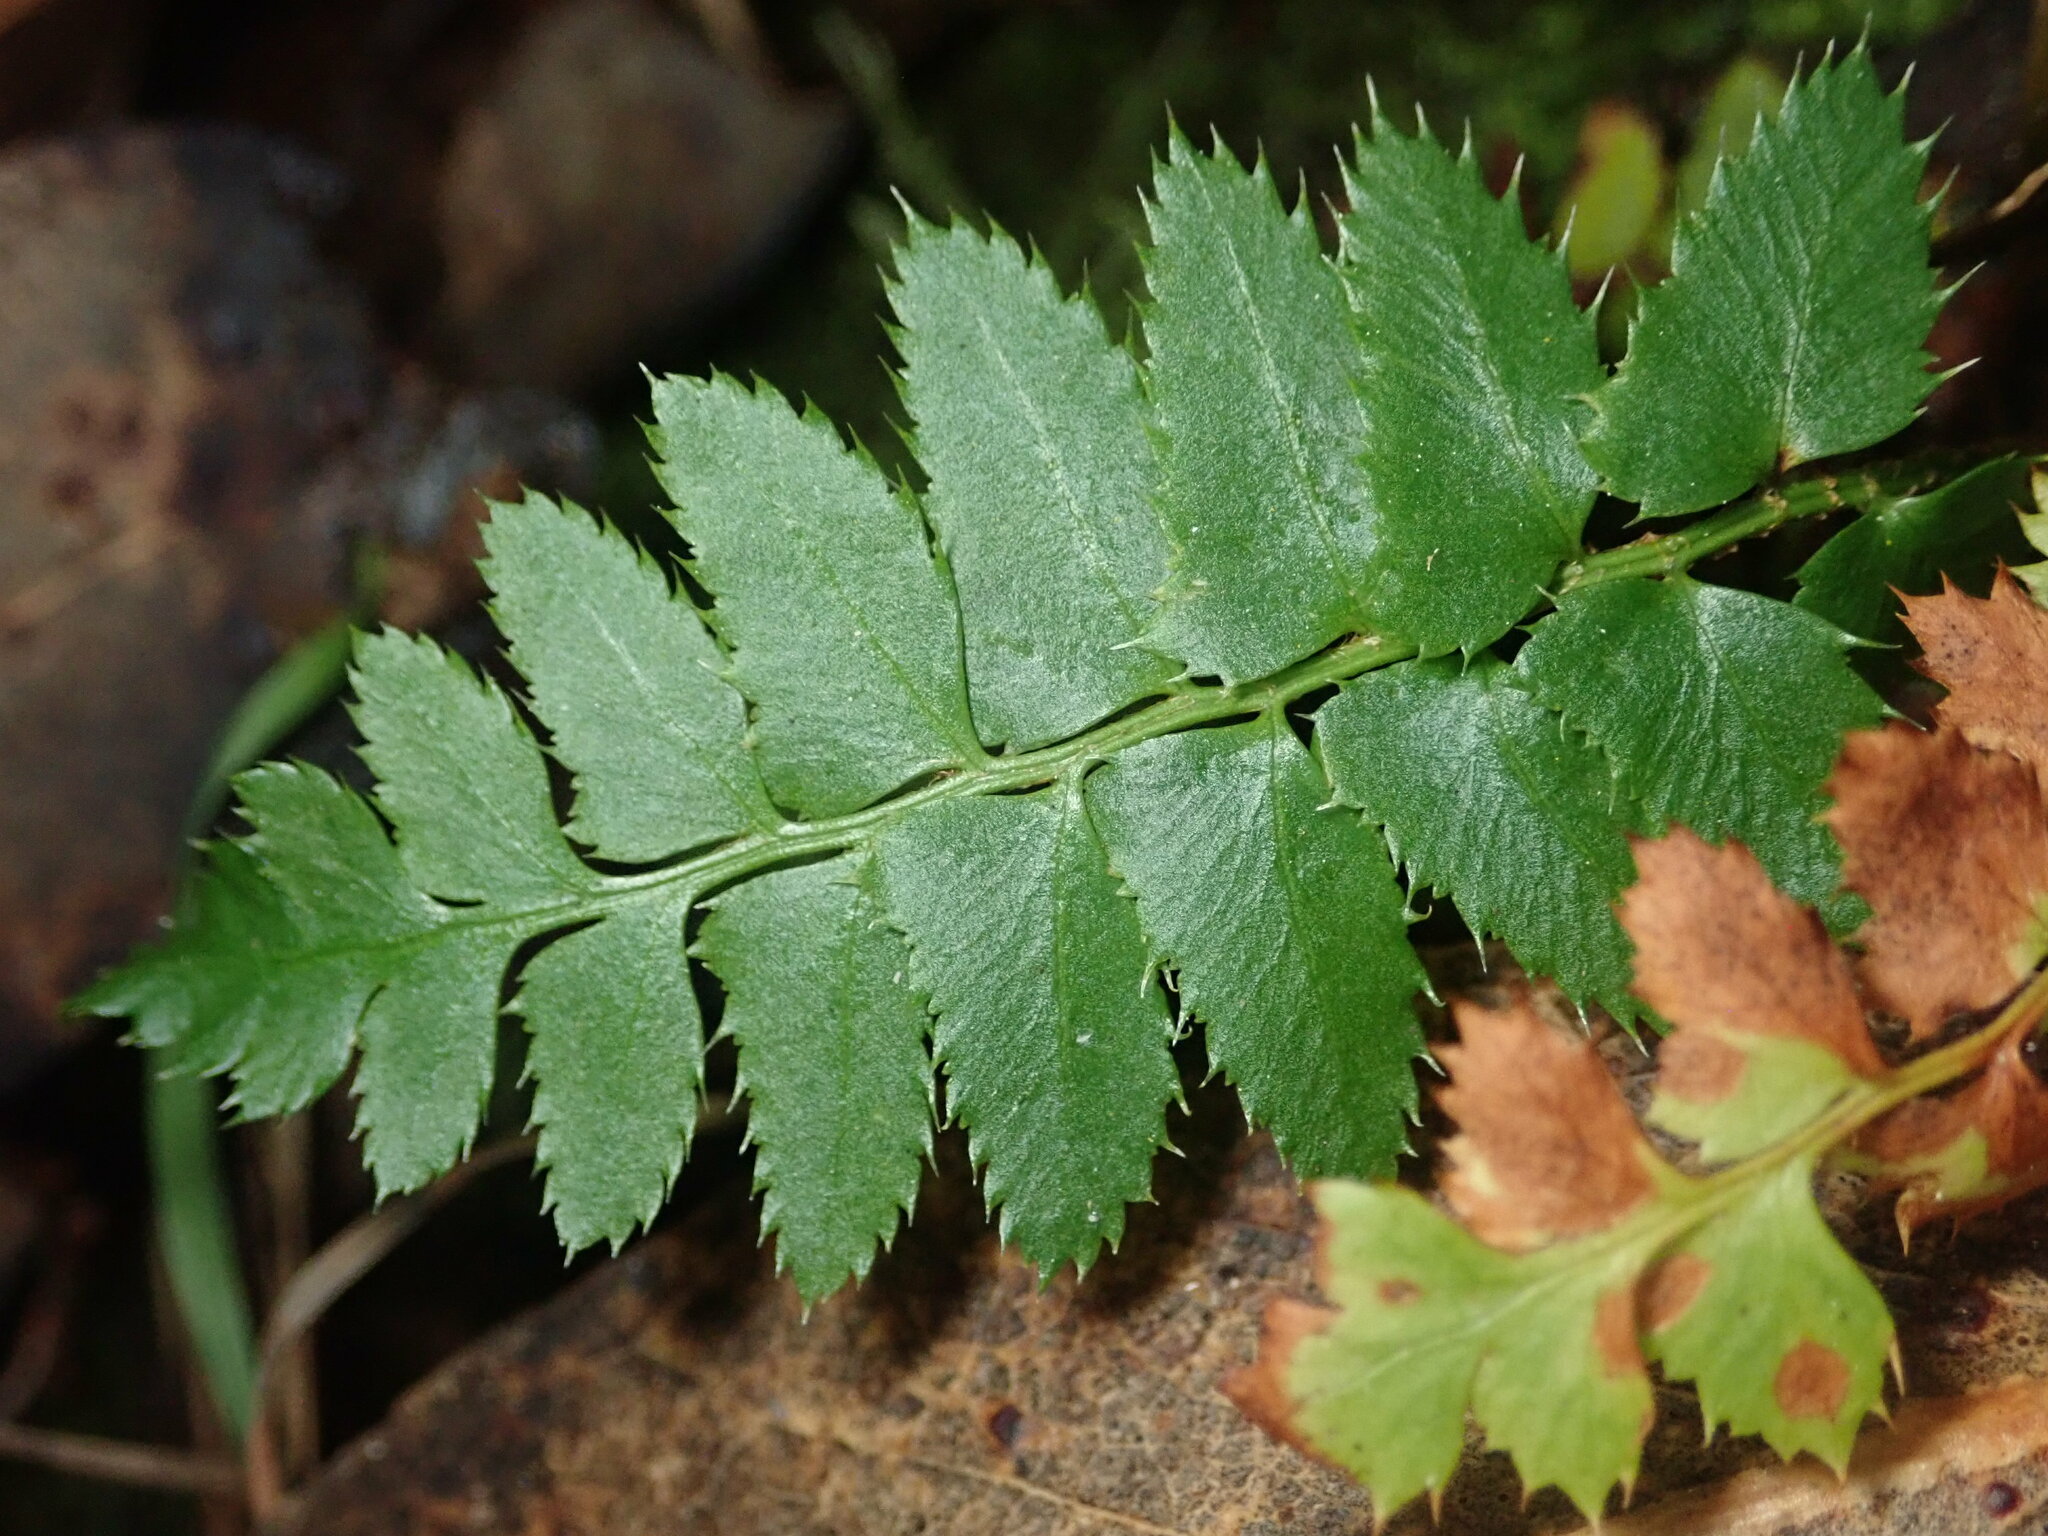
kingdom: Plantae
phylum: Tracheophyta
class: Polypodiopsida
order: Polypodiales
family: Dryopteridaceae
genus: Polystichum
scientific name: Polystichum munitum
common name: Western sword-fern
